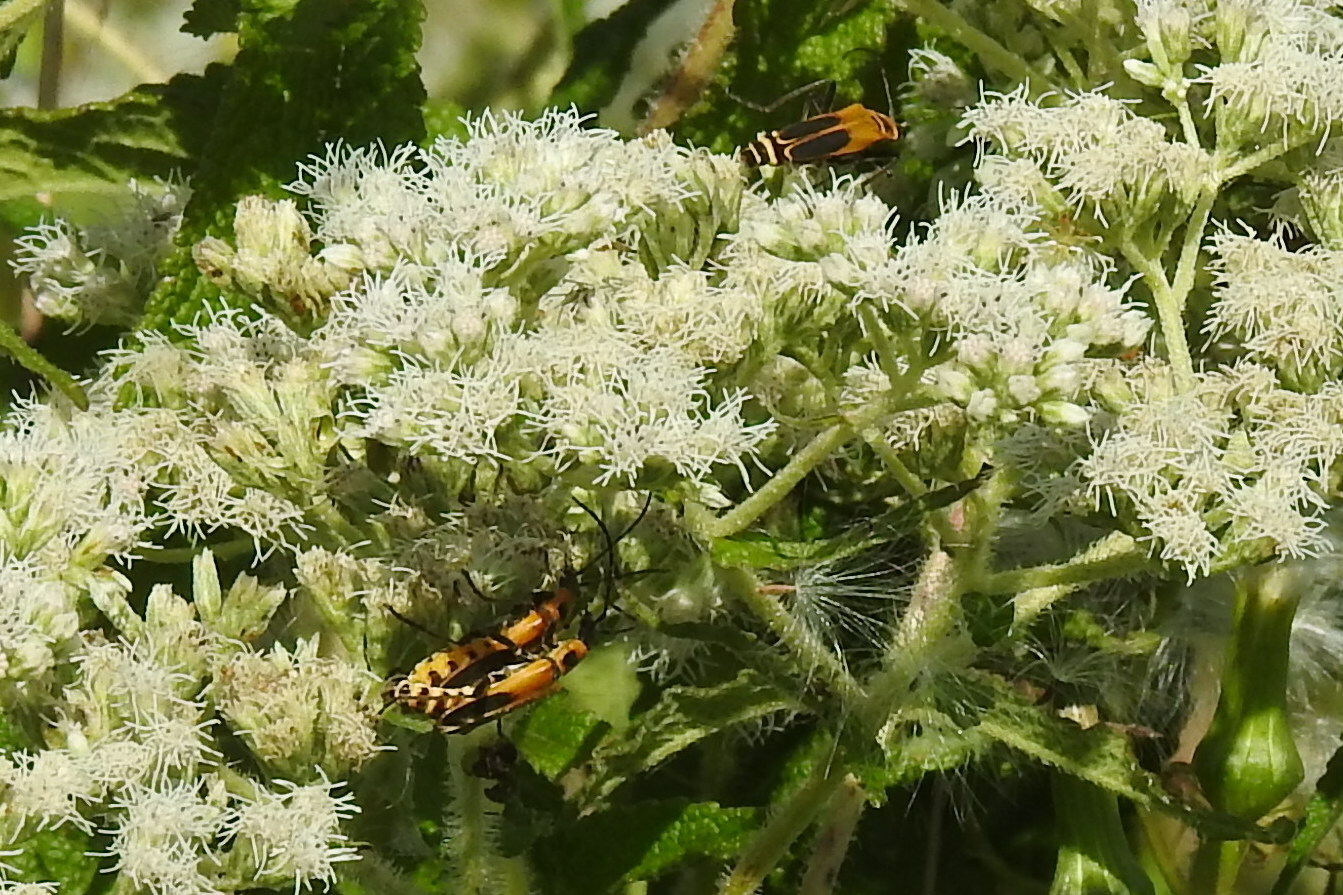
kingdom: Animalia
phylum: Arthropoda
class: Insecta
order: Coleoptera
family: Cantharidae
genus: Chauliognathus
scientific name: Chauliognathus pensylvanicus
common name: Goldenrod soldier beetle
